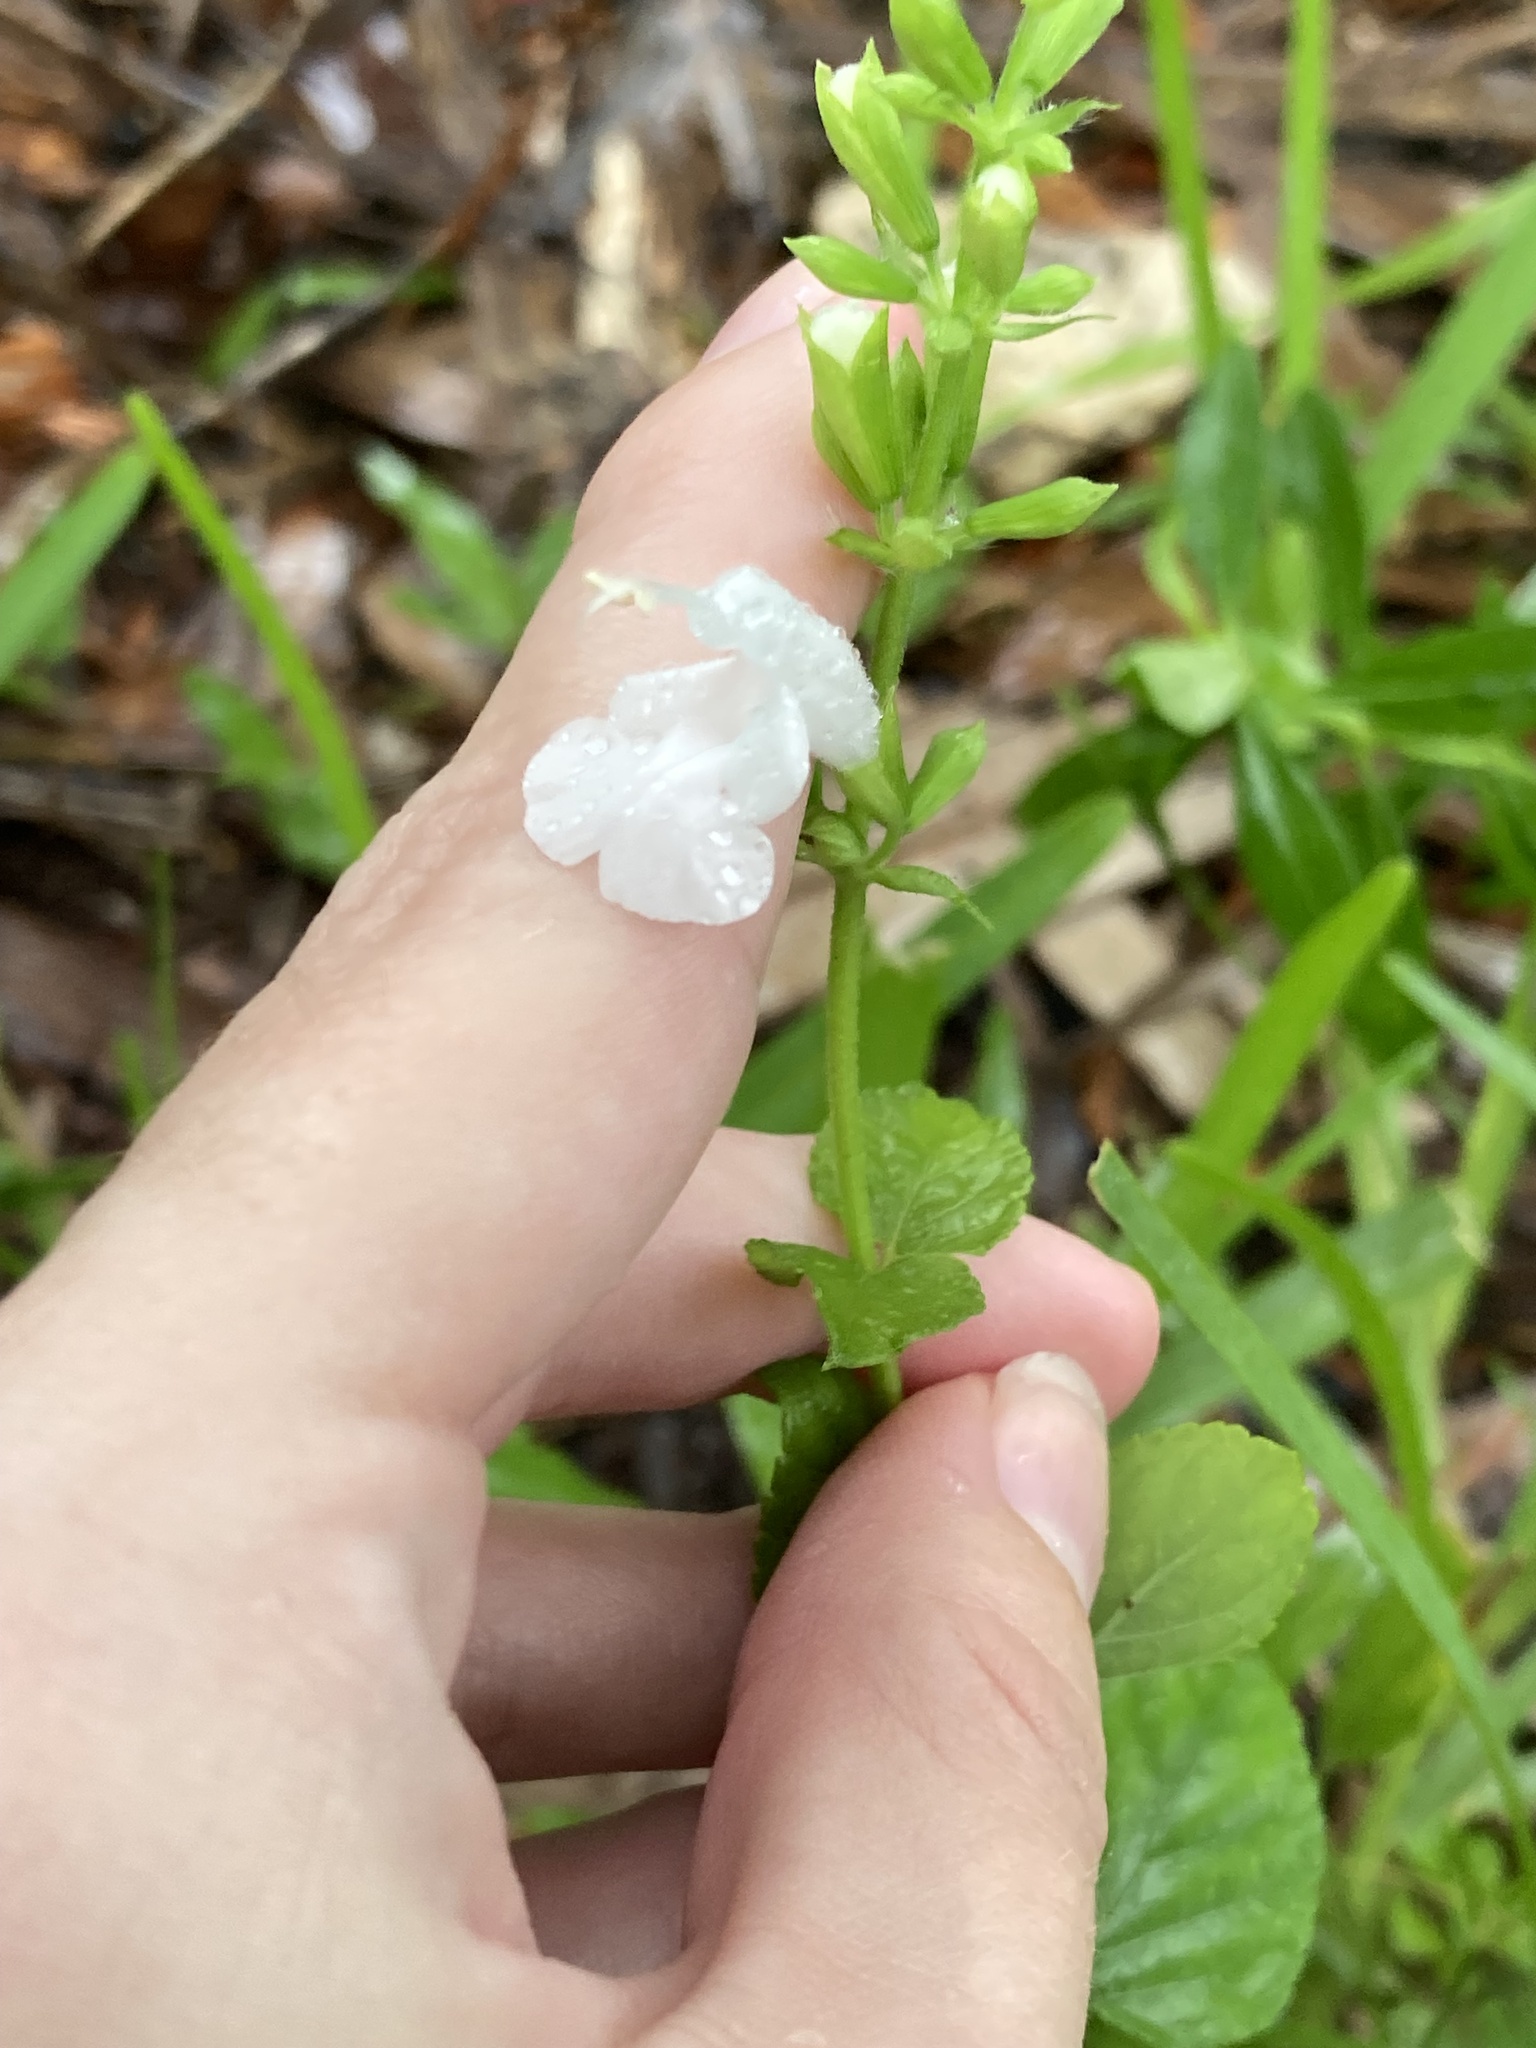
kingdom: Plantae
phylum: Tracheophyta
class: Magnoliopsida
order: Lamiales
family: Lamiaceae
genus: Salvia
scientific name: Salvia coccinea
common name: Blood sage
